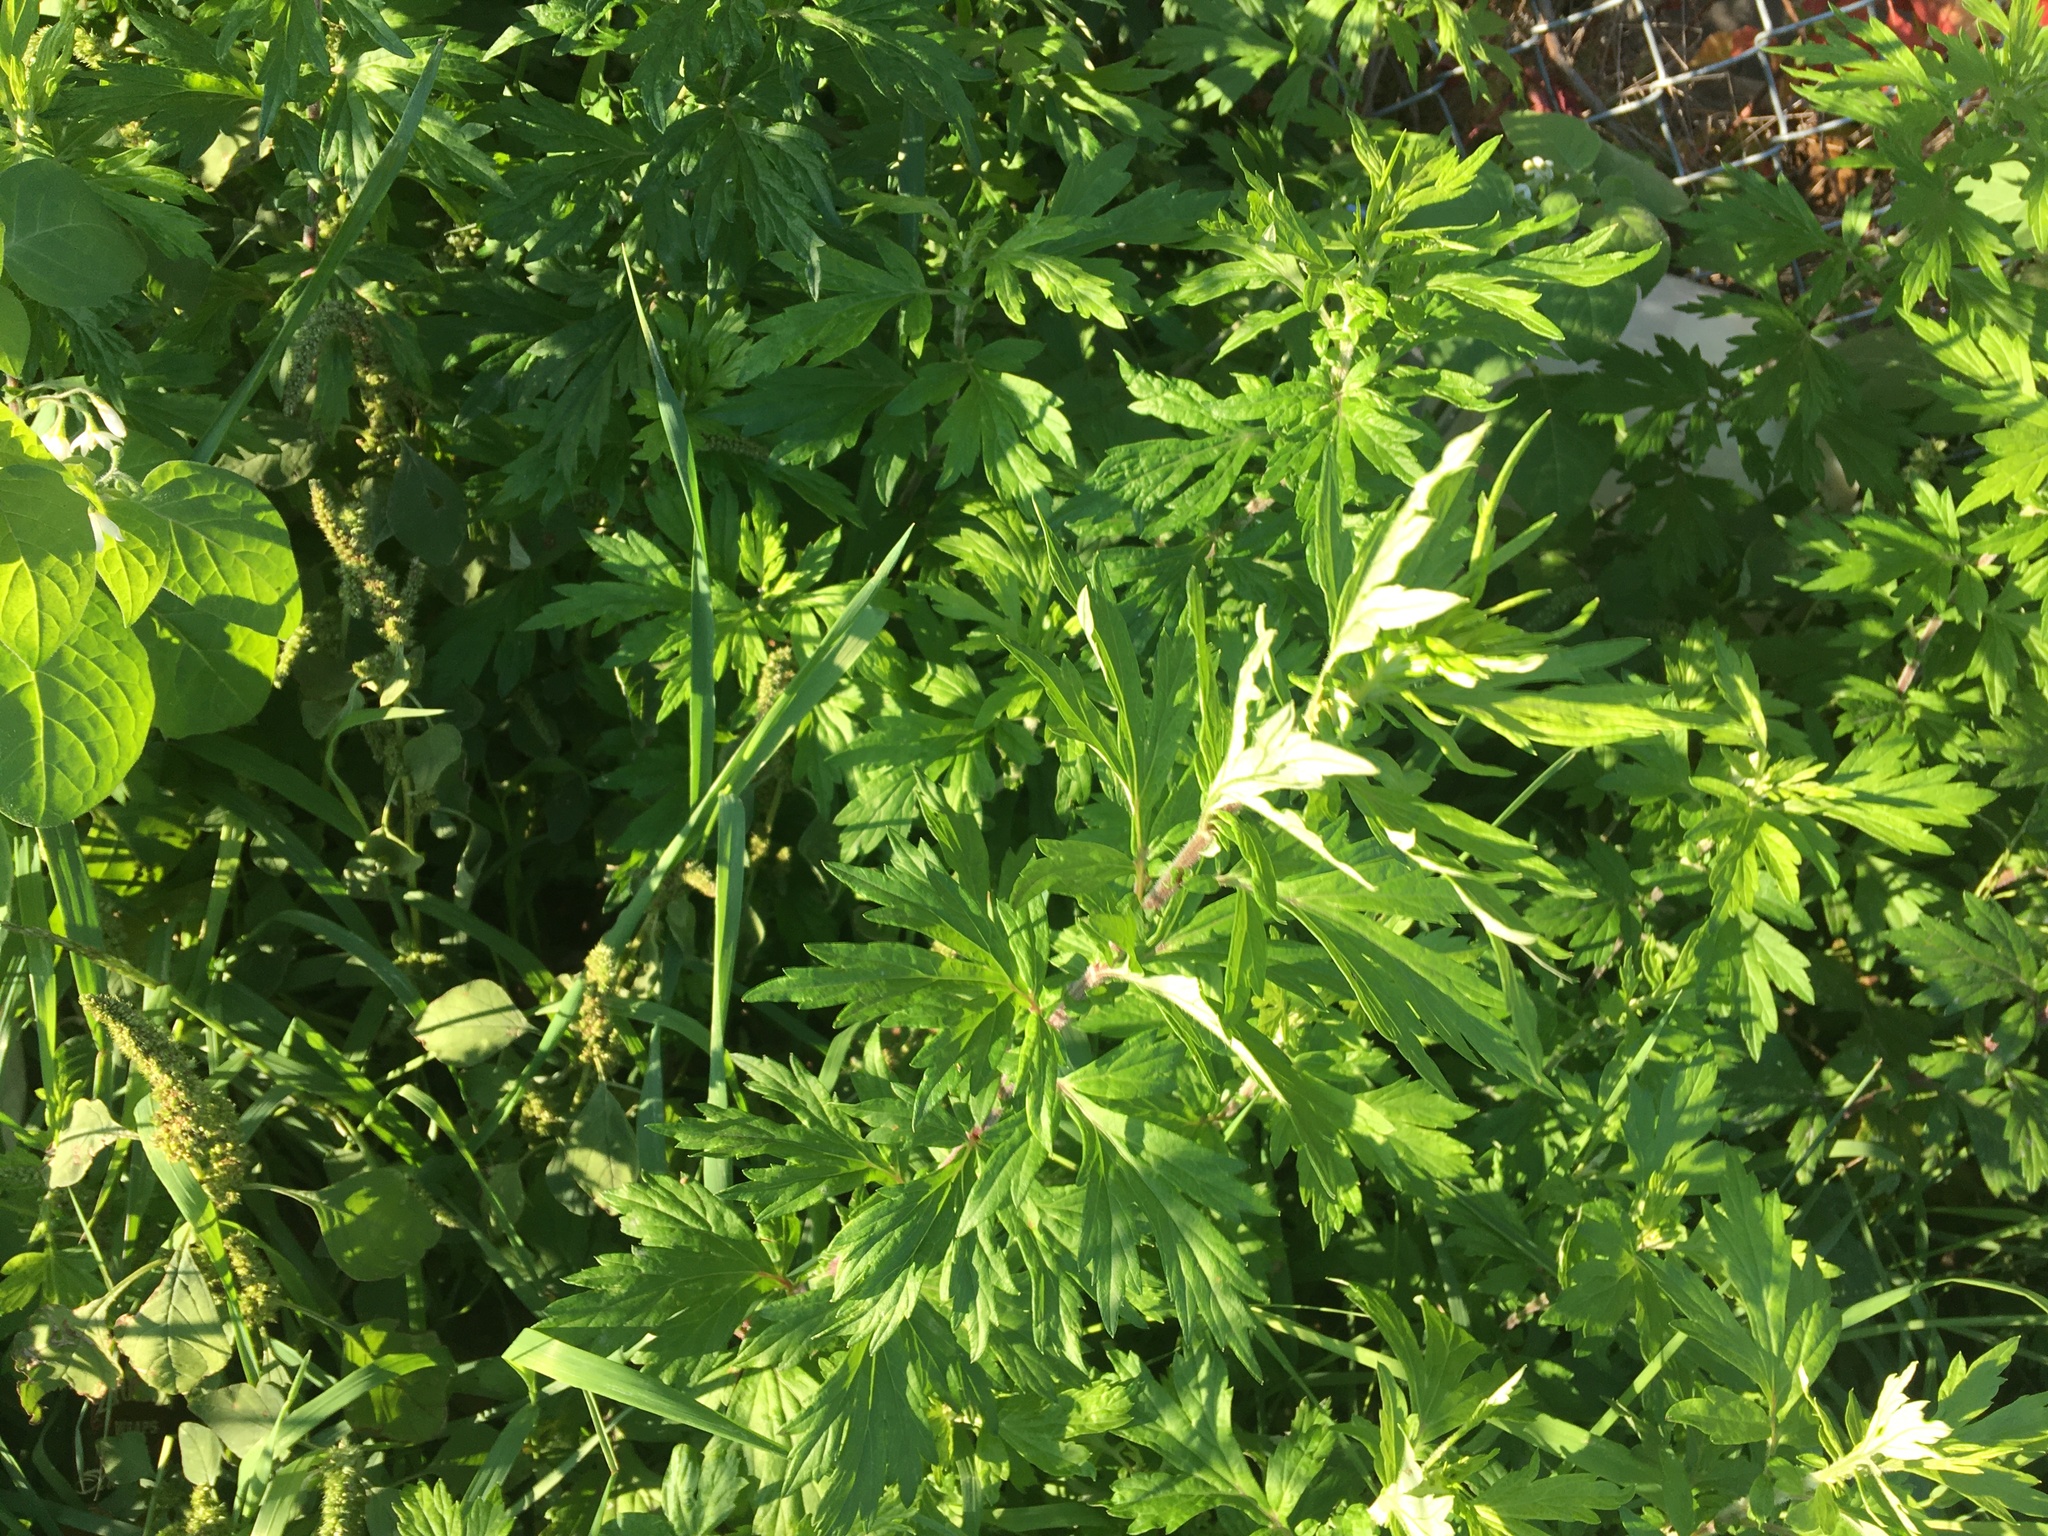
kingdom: Plantae
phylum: Tracheophyta
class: Magnoliopsida
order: Asterales
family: Asteraceae
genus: Artemisia
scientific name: Artemisia vulgaris
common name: Mugwort
